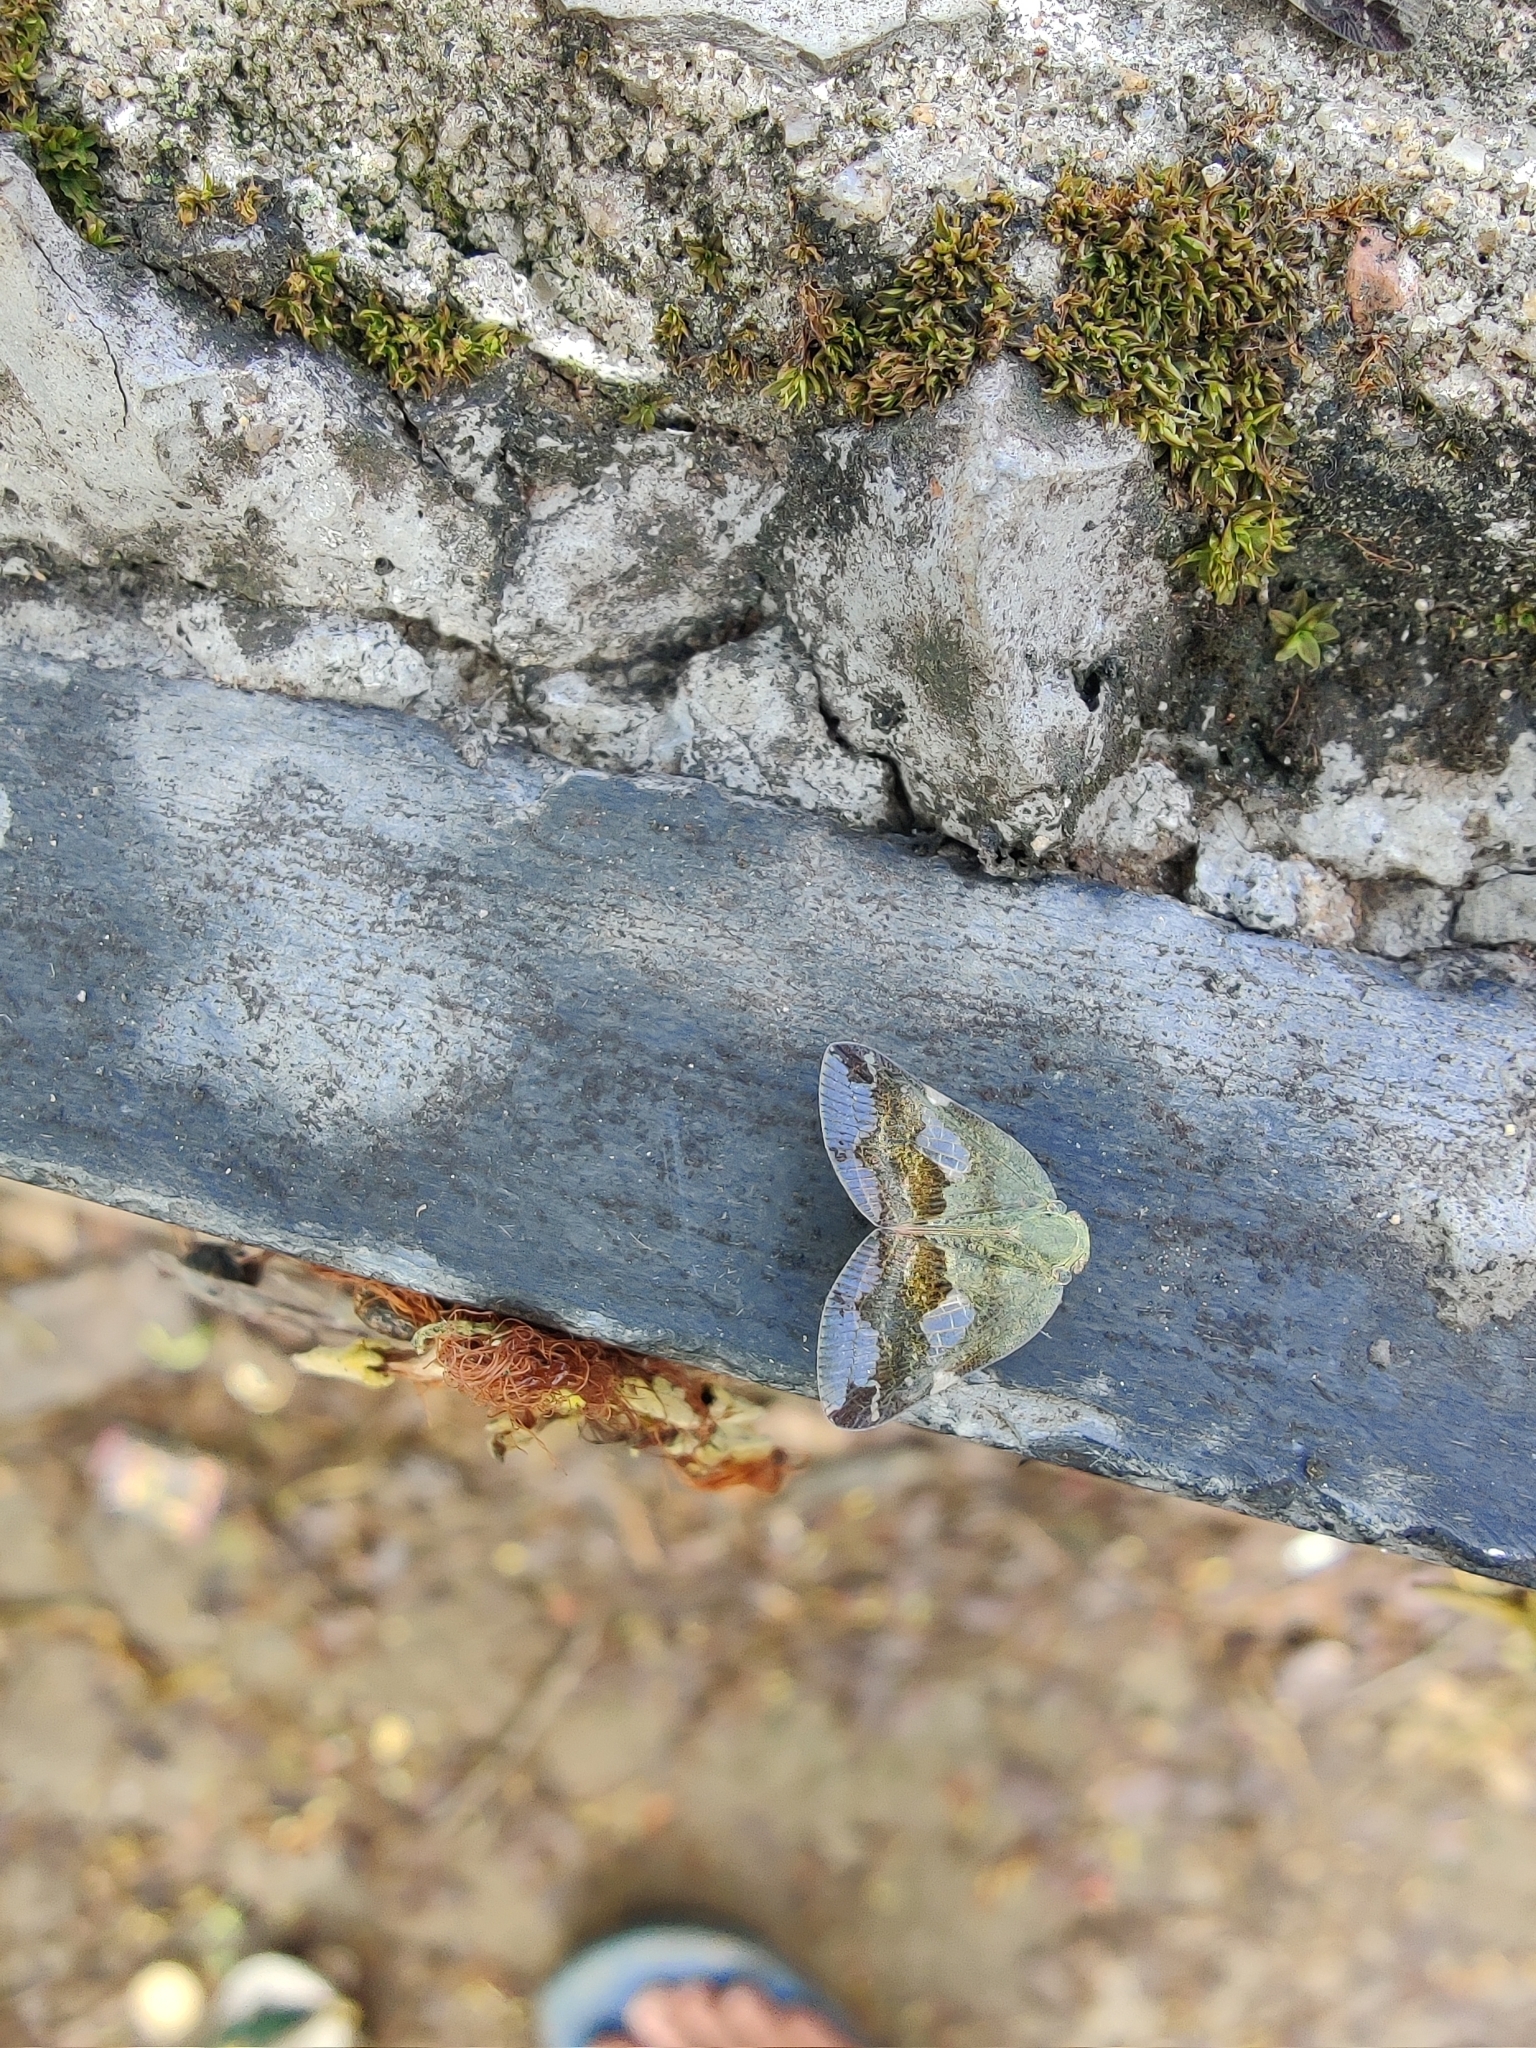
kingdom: Animalia
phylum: Arthropoda
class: Insecta
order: Hemiptera
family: Ricaniidae
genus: Ricania
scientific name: Ricania fenestrata
